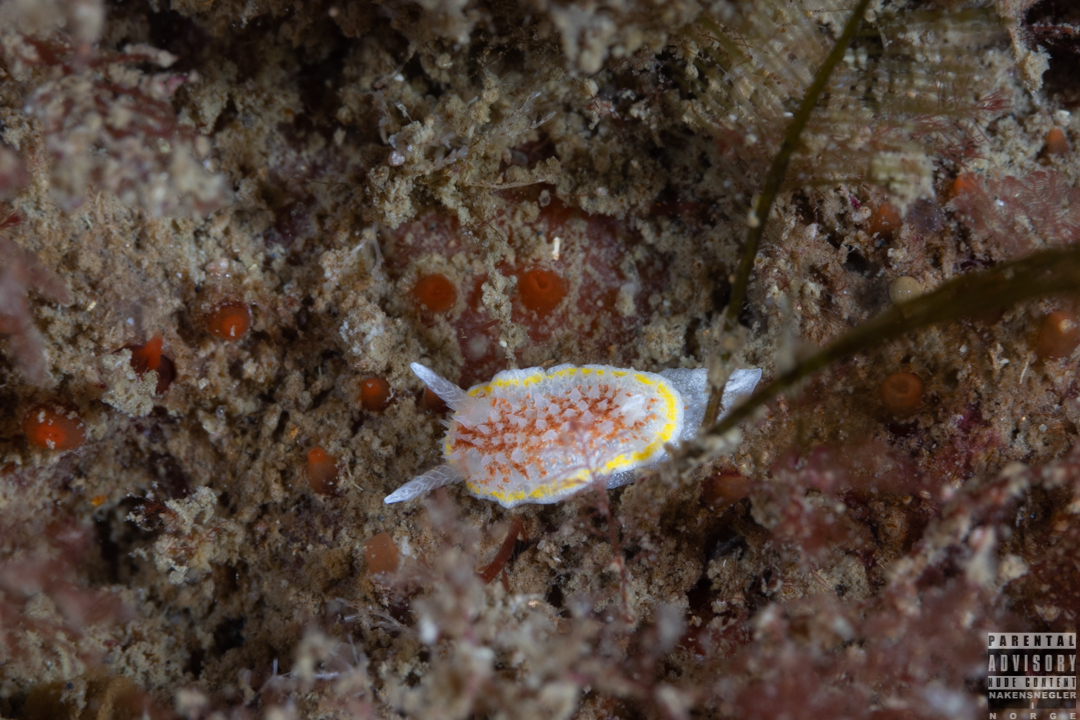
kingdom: Animalia
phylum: Mollusca
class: Gastropoda
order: Nudibranchia
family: Calycidorididae
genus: Diaphorodoris
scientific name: Diaphorodoris luteocincta
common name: Fried egg nudibranch
